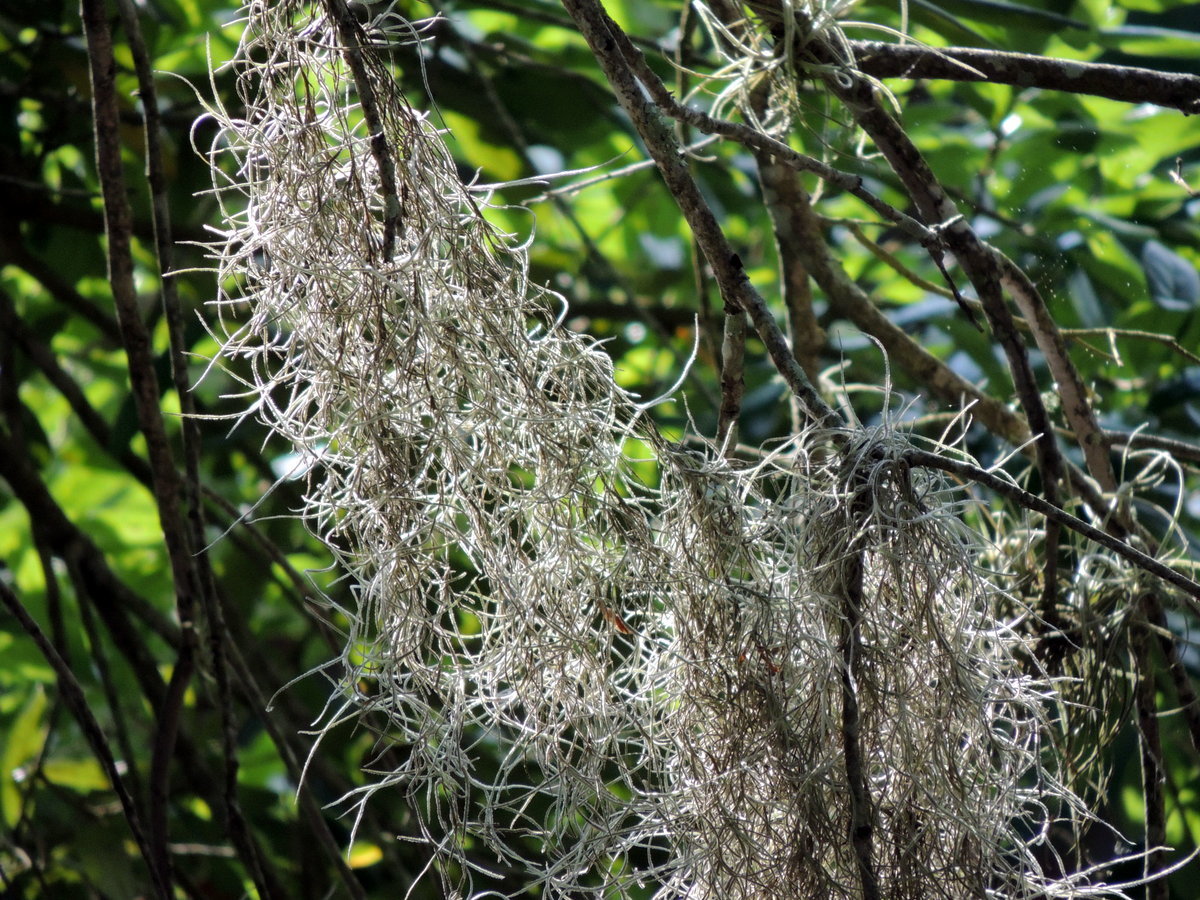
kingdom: Plantae
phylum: Tracheophyta
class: Liliopsida
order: Poales
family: Bromeliaceae
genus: Tillandsia
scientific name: Tillandsia usneoides
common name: Spanish moss
